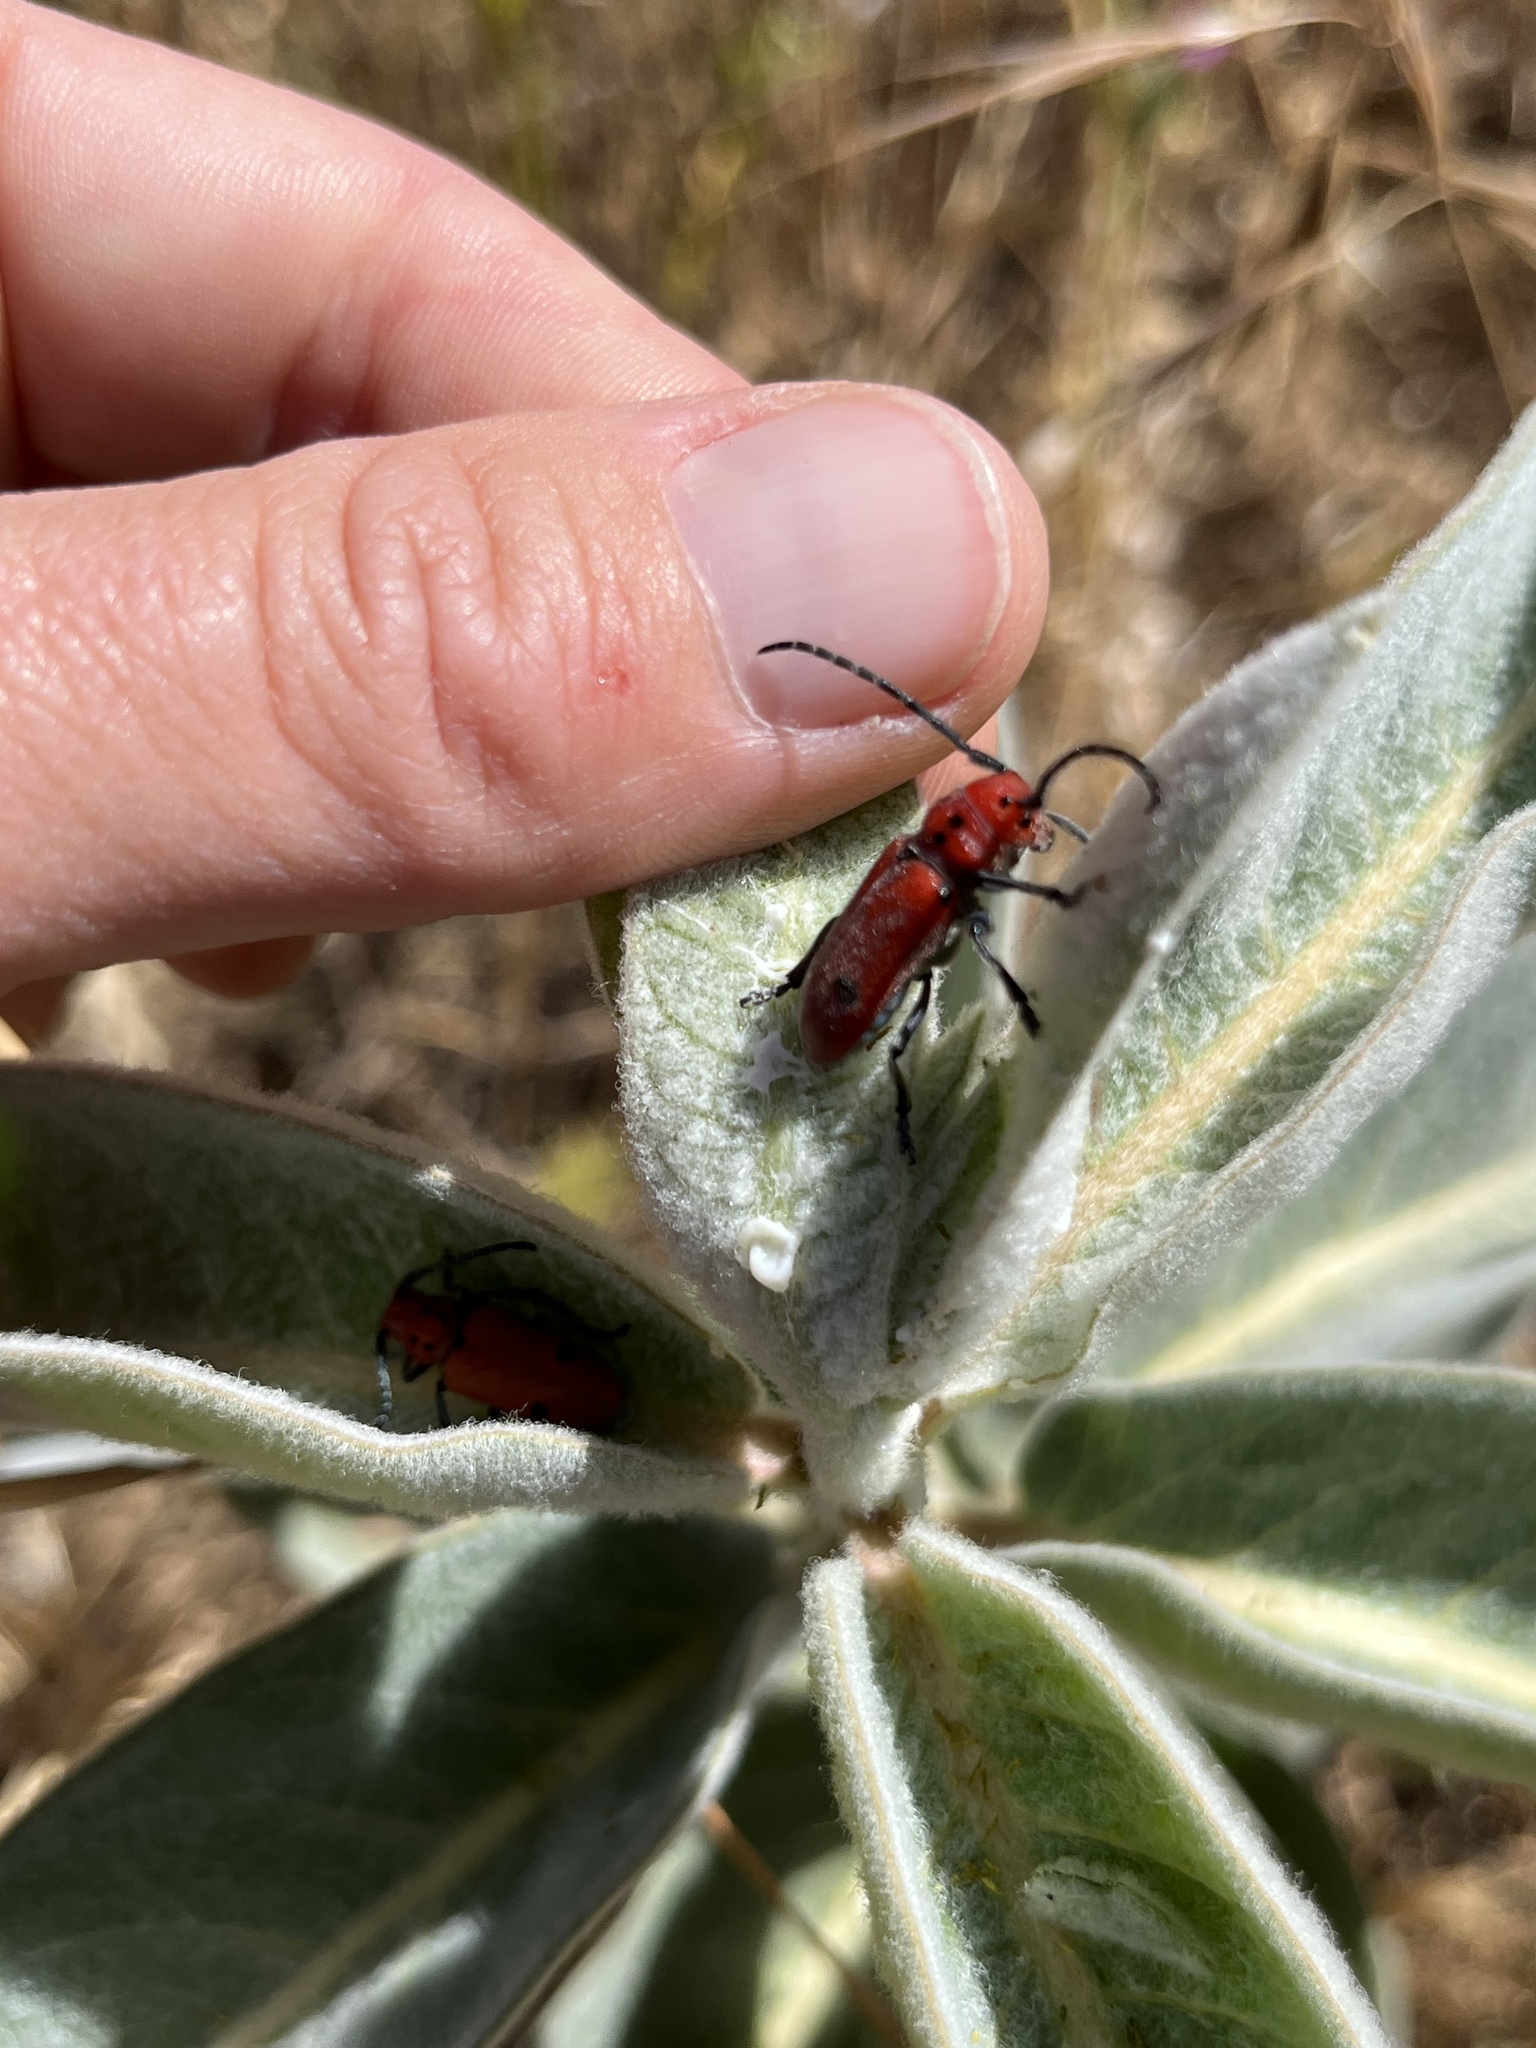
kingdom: Animalia
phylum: Arthropoda
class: Insecta
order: Coleoptera
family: Cerambycidae
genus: Tetraopes
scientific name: Tetraopes basalis
